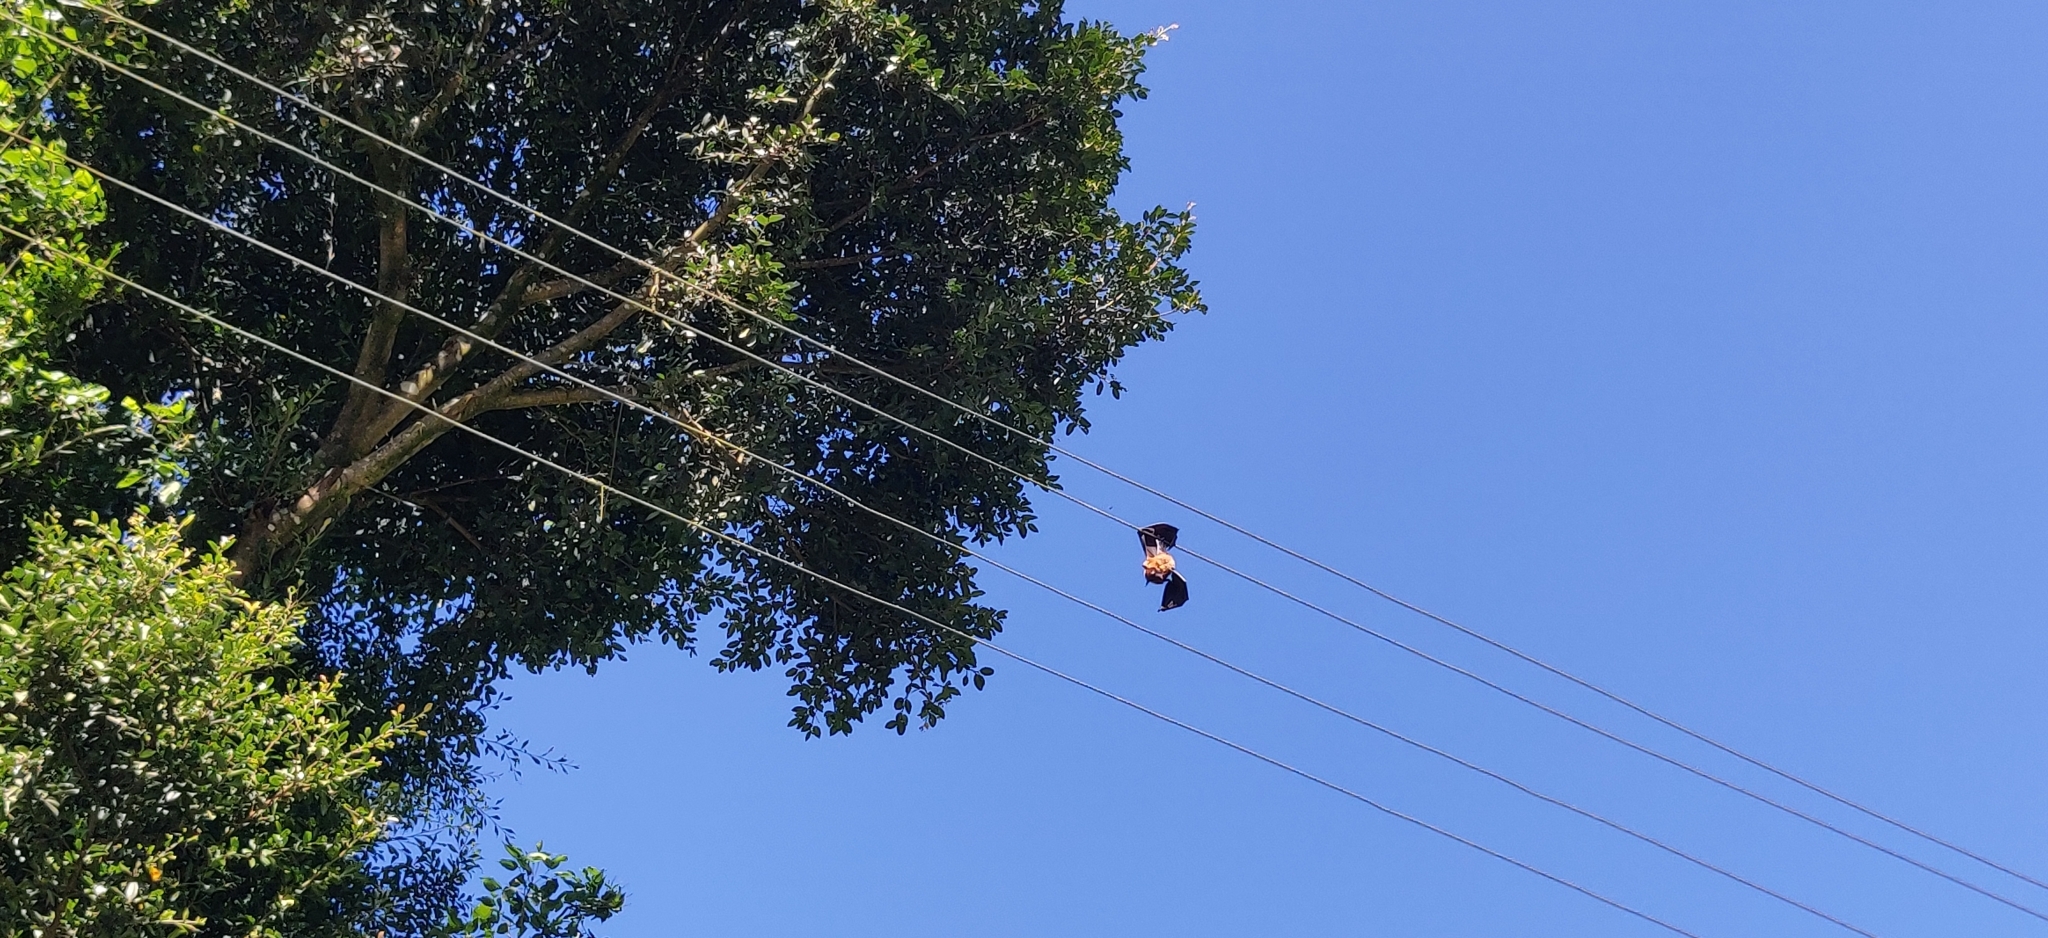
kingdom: Animalia
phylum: Chordata
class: Mammalia
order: Chiroptera
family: Pteropodidae
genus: Pteropus
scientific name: Pteropus vampyrus
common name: Large flying fox
